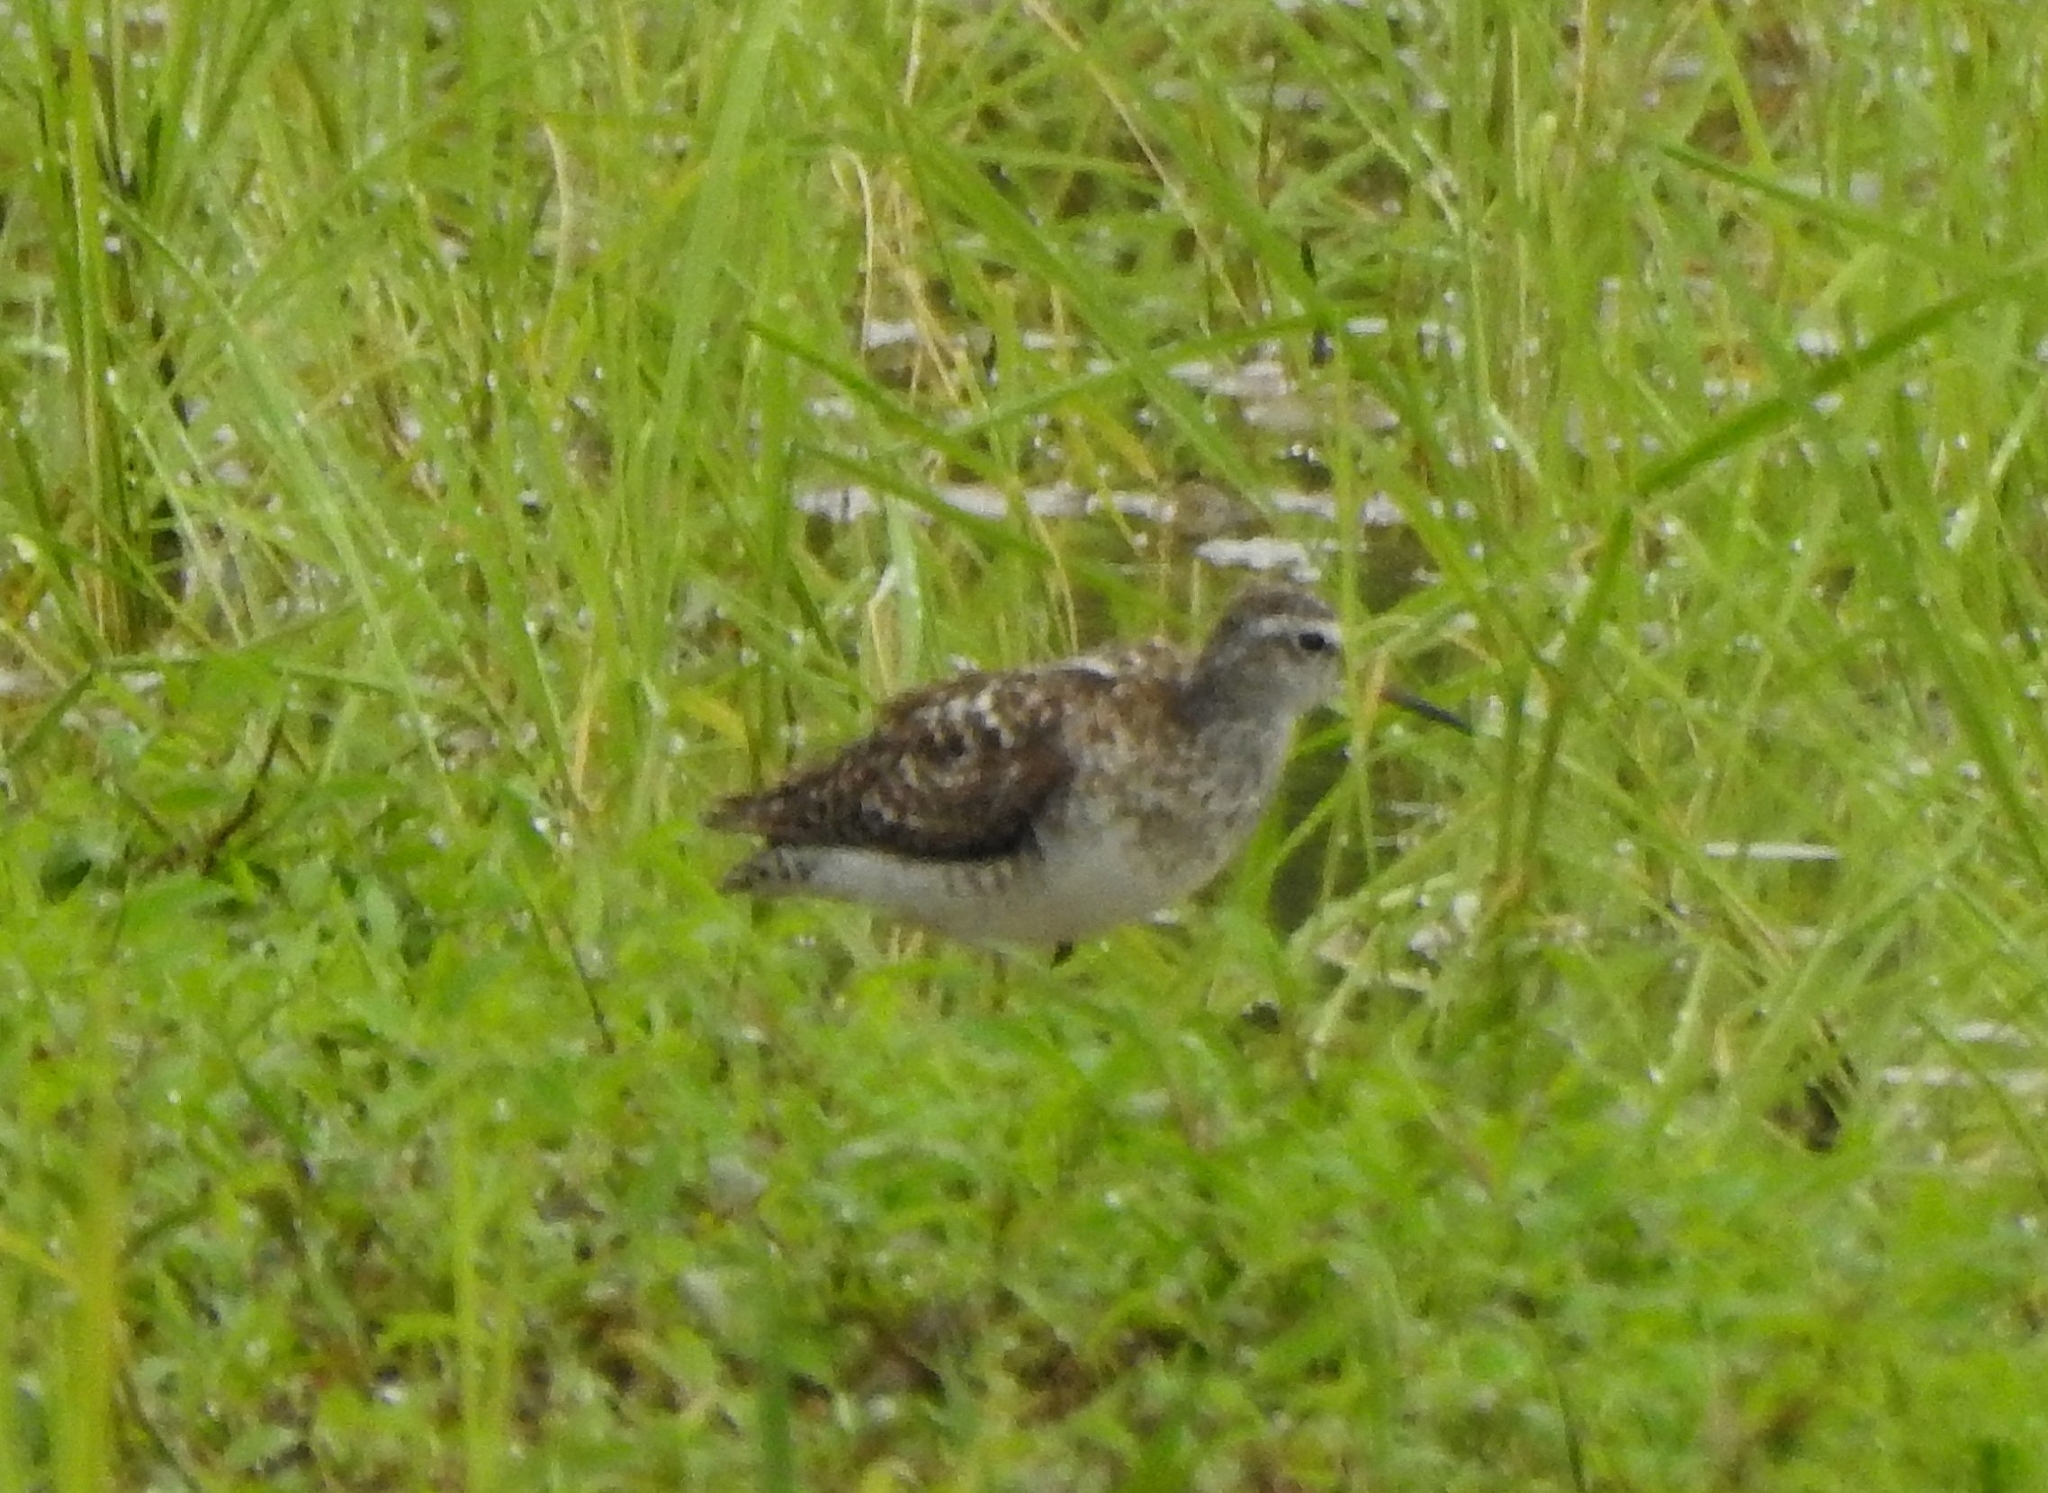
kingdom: Animalia
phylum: Chordata
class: Aves
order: Charadriiformes
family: Scolopacidae
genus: Tringa
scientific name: Tringa glareola
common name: Wood sandpiper
